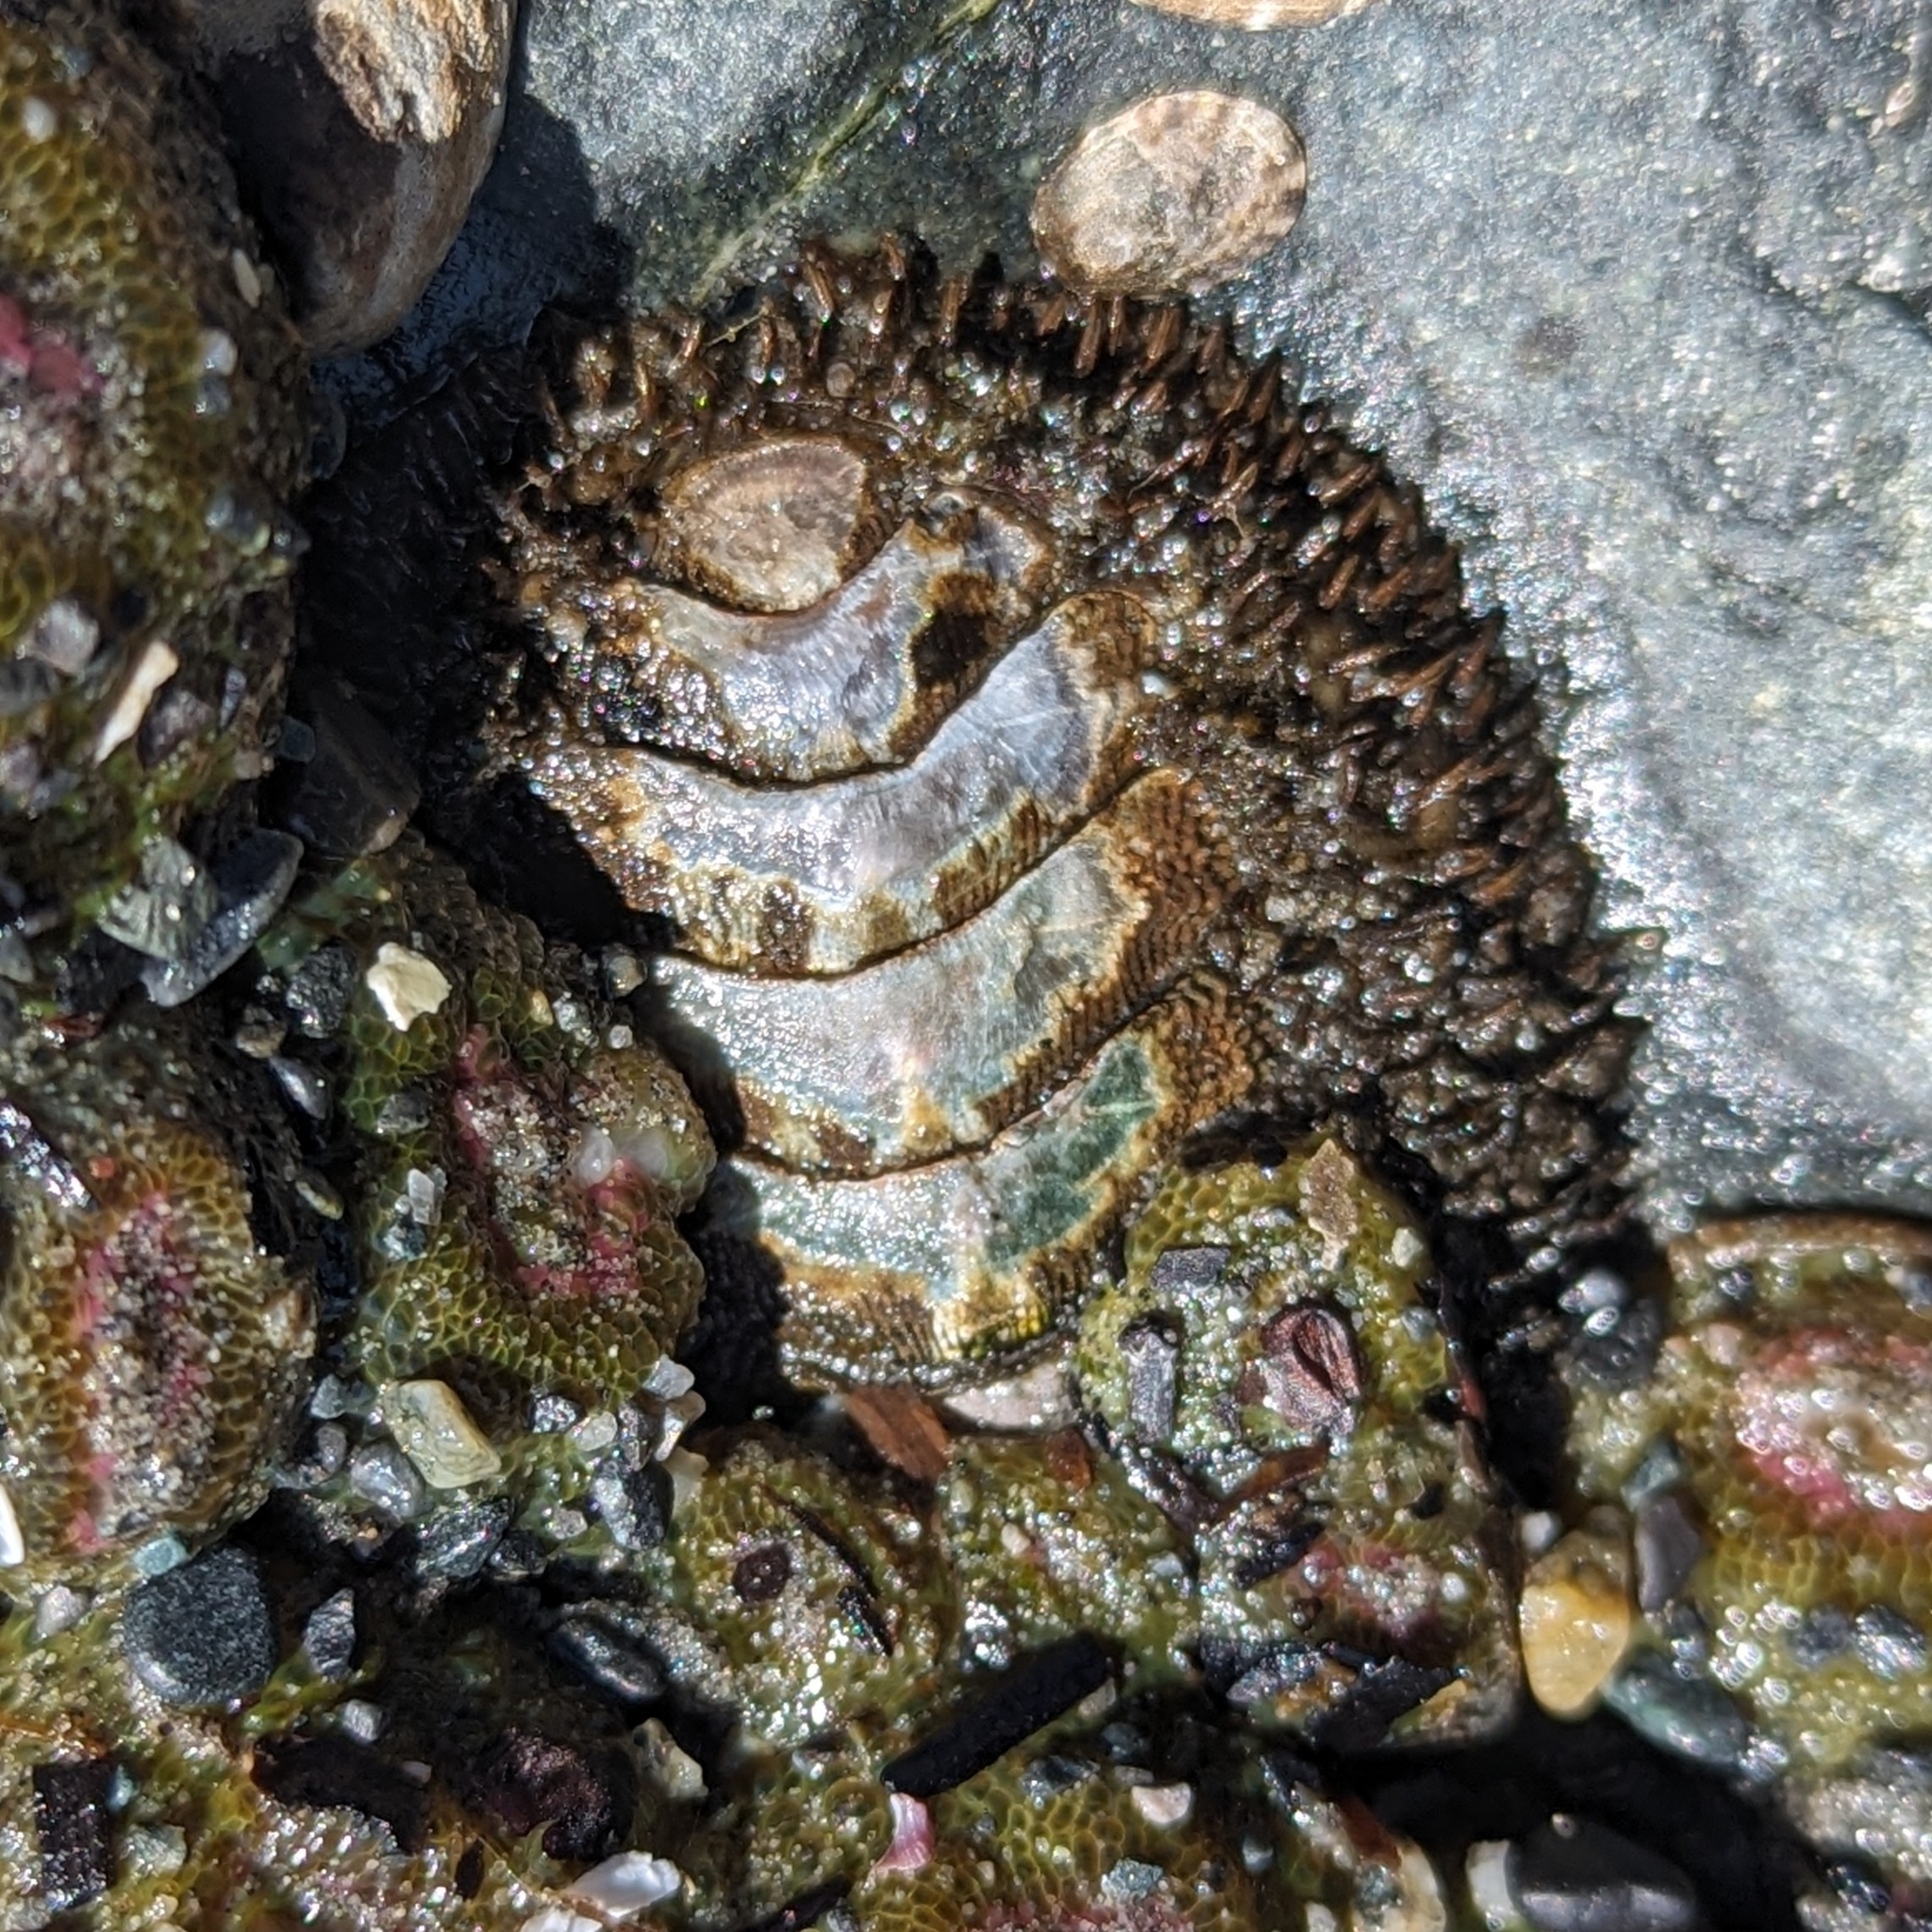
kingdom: Animalia
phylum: Mollusca
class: Polyplacophora
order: Chitonida
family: Mopaliidae
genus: Mopalia
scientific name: Mopalia muscosa
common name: Mossy chiton
